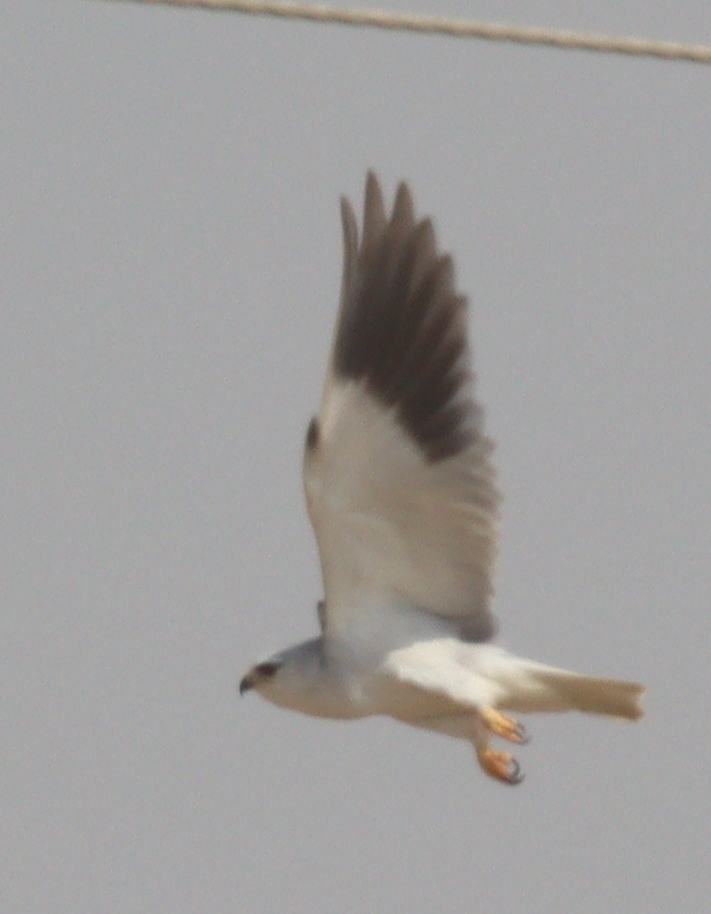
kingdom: Animalia
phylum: Chordata
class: Aves
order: Accipitriformes
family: Accipitridae
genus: Elanus
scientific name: Elanus caeruleus
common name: Black-winged kite
